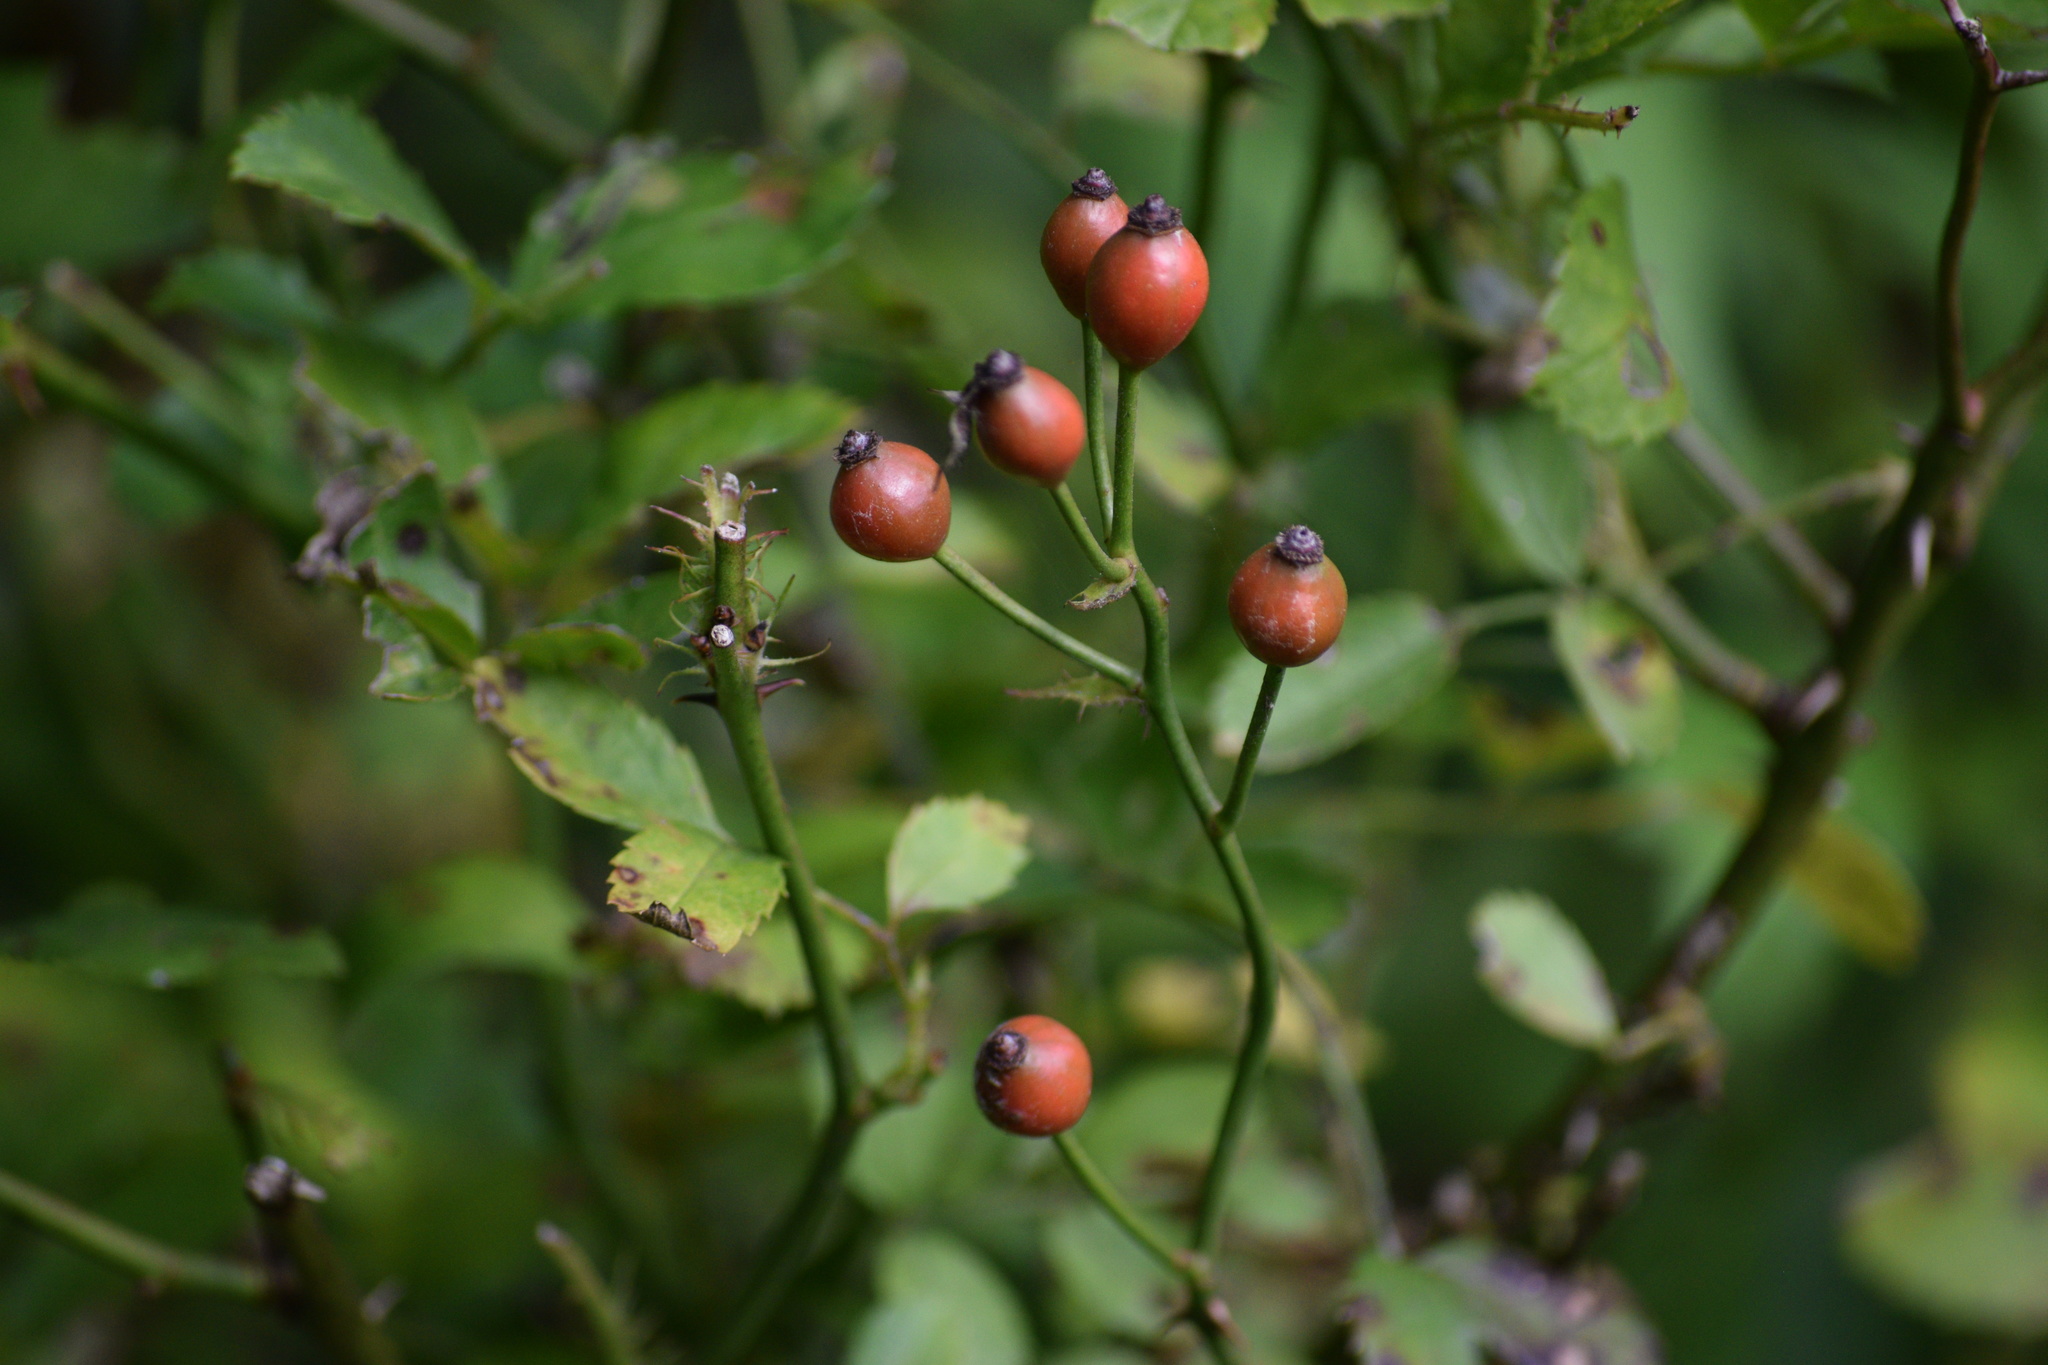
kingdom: Plantae
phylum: Tracheophyta
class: Magnoliopsida
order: Rosales
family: Rosaceae
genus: Rosa
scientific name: Rosa multiflora
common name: Multiflora rose
